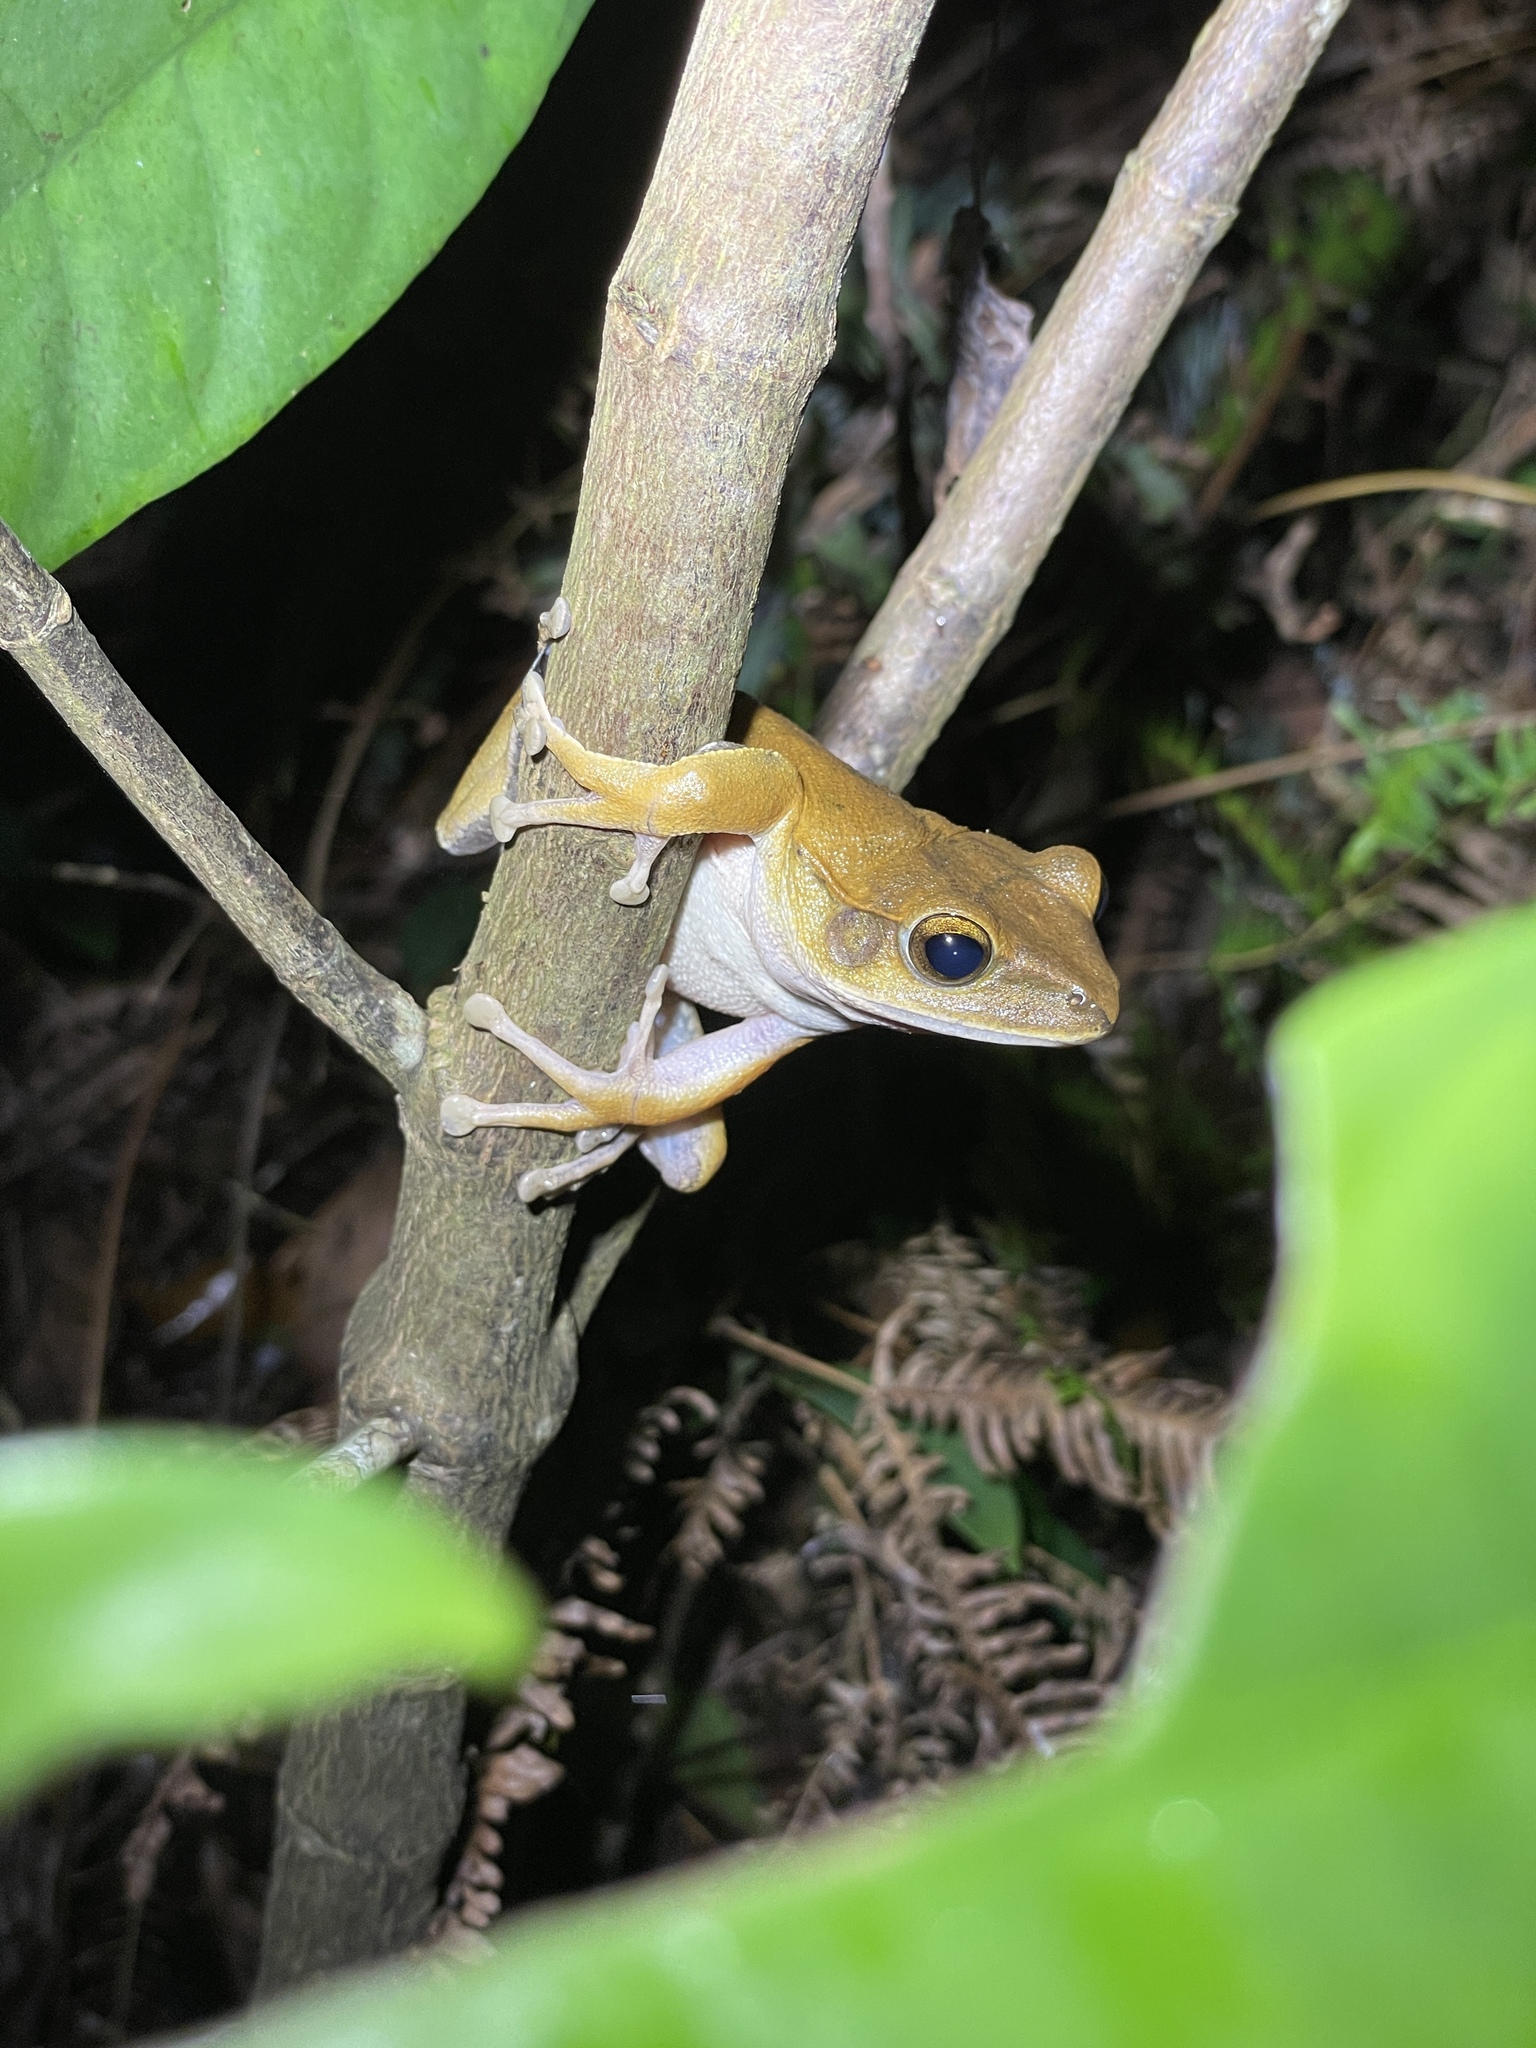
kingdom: Animalia
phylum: Chordata
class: Amphibia
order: Anura
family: Rhacophoridae
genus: Polypedates
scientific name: Polypedates megacephalus
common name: Hong kong whipping frog
